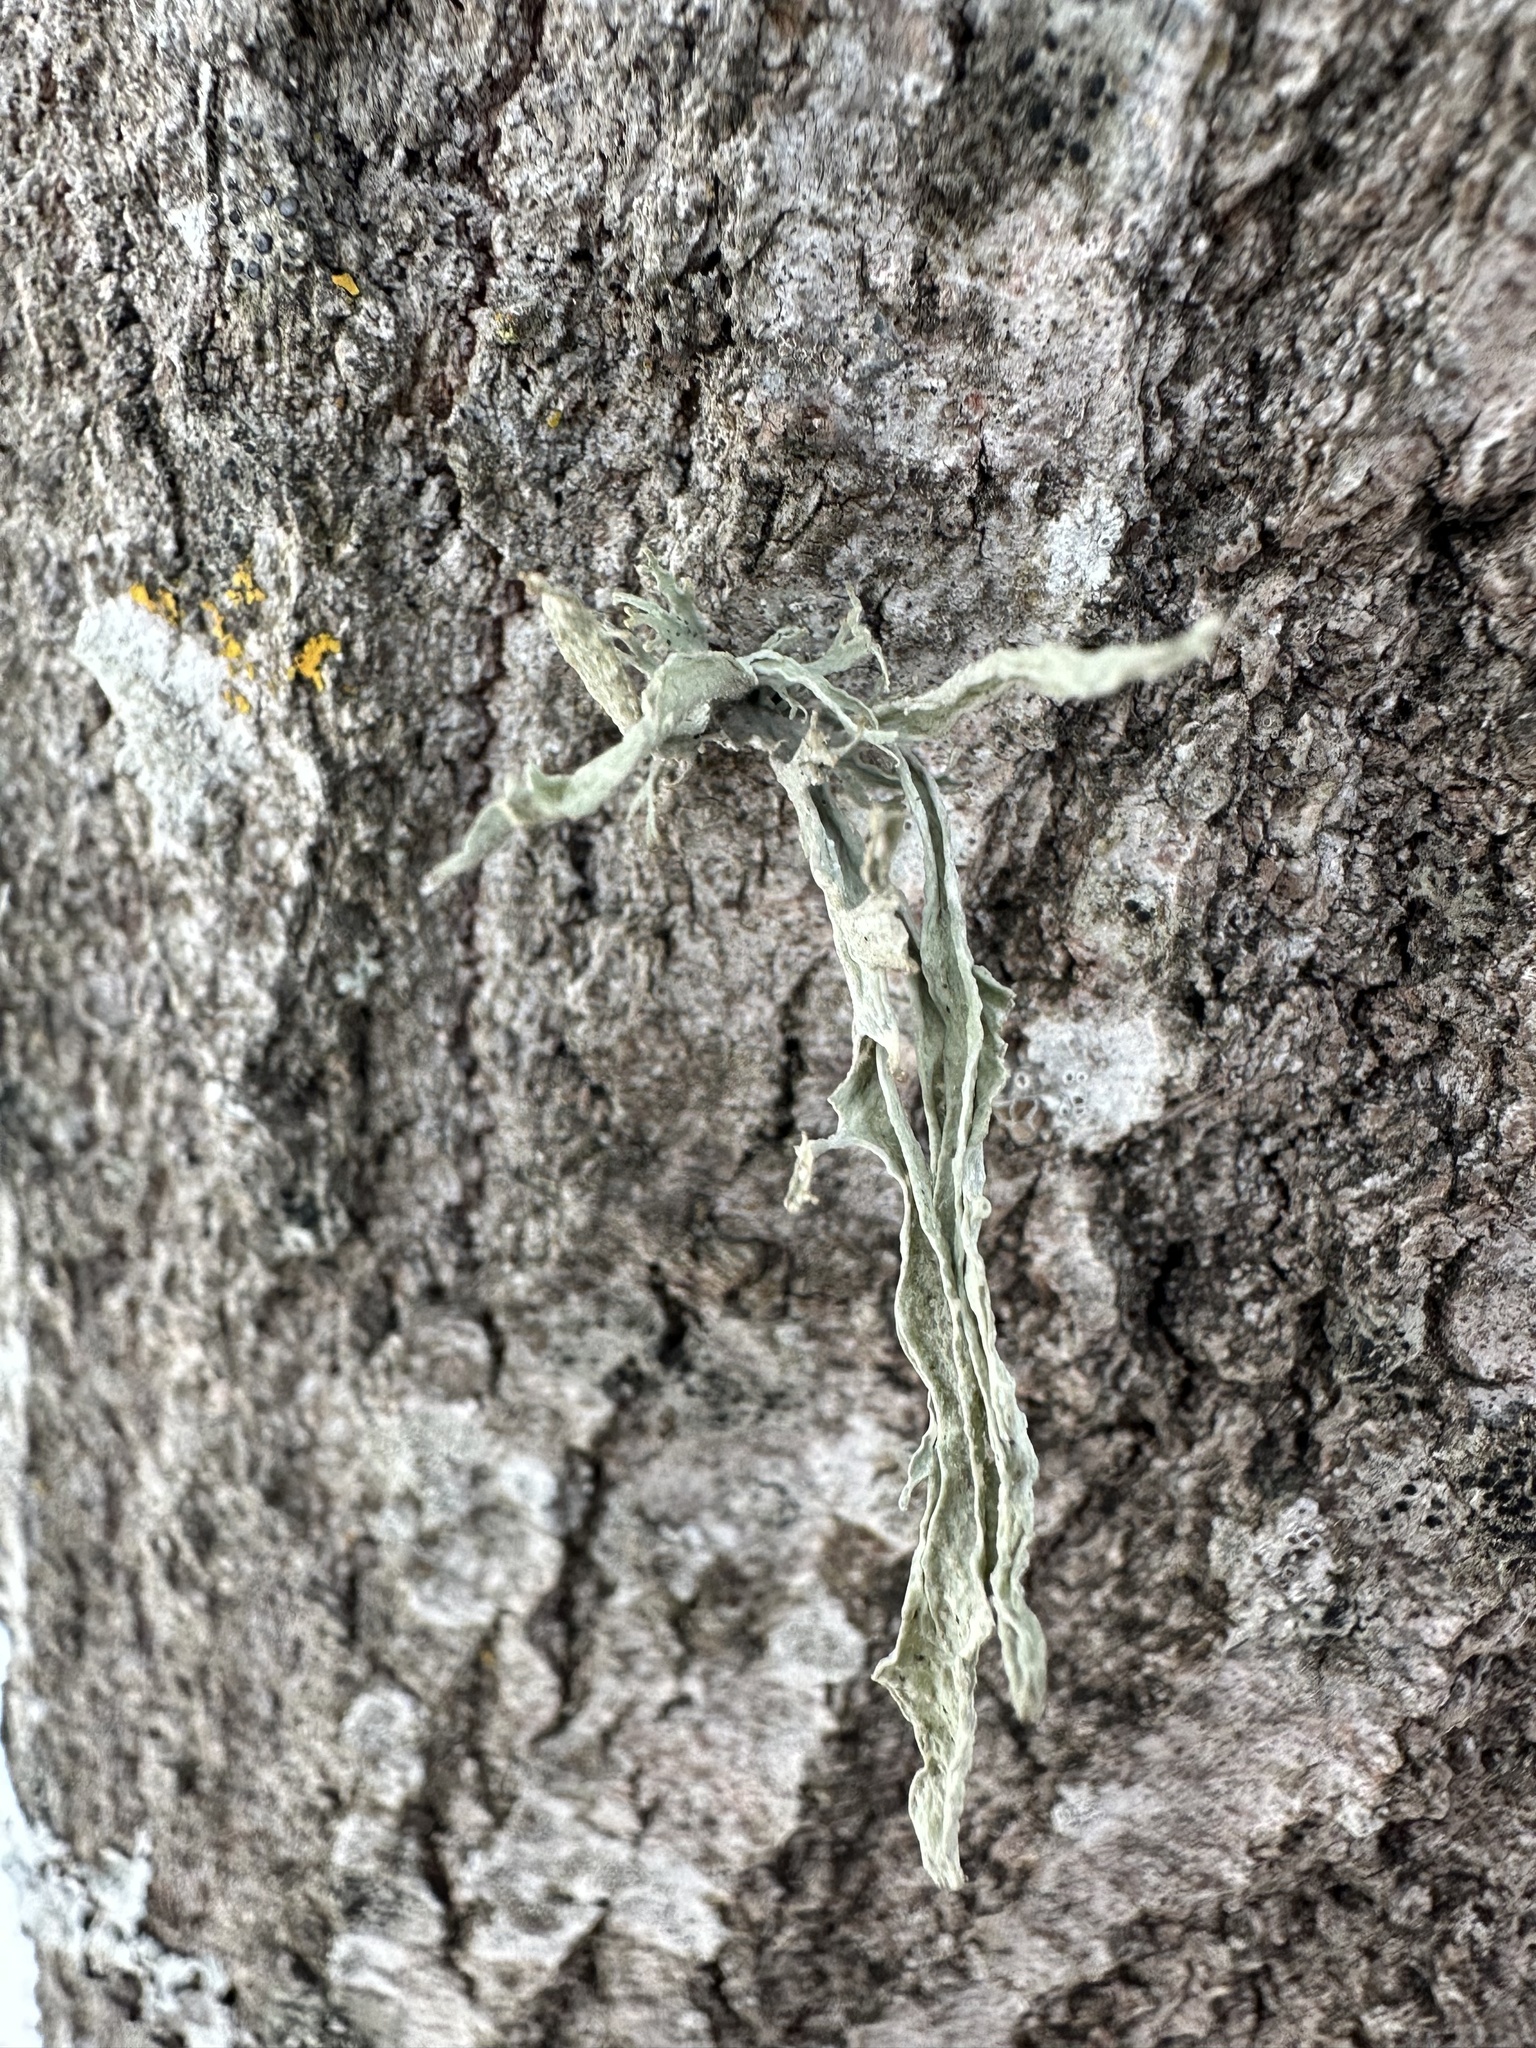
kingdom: Fungi
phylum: Ascomycota
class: Lecanoromycetes
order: Lecanorales
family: Ramalinaceae
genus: Ramalina
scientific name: Ramalina fraxinea
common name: Cartilage lichen
